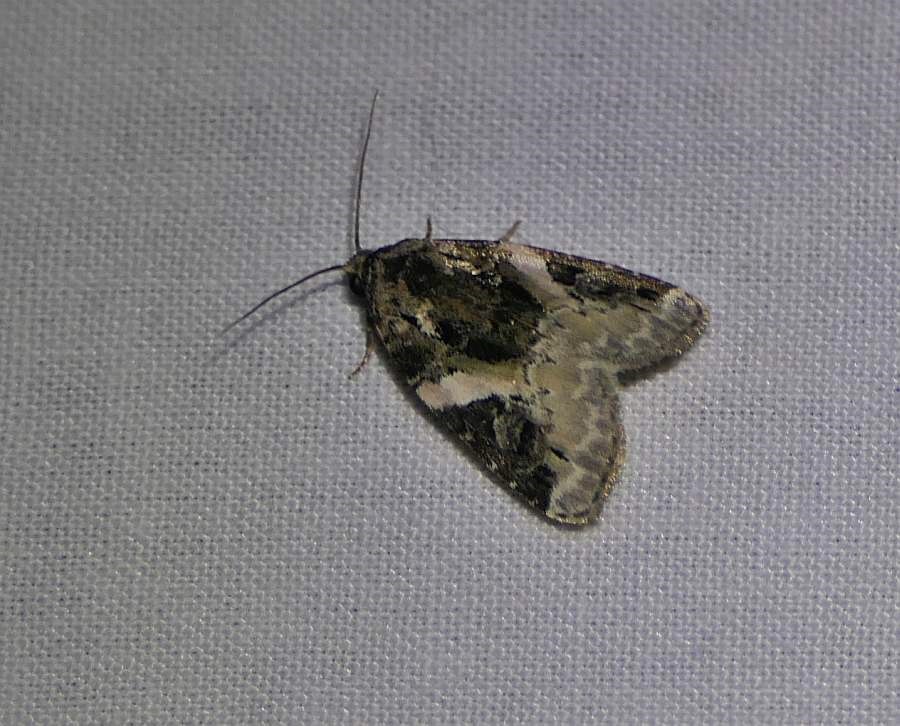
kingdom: Animalia
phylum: Arthropoda
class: Insecta
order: Lepidoptera
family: Noctuidae
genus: Pseudeustrotia
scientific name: Pseudeustrotia carneola
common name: Pink-barred lithacodia moth
